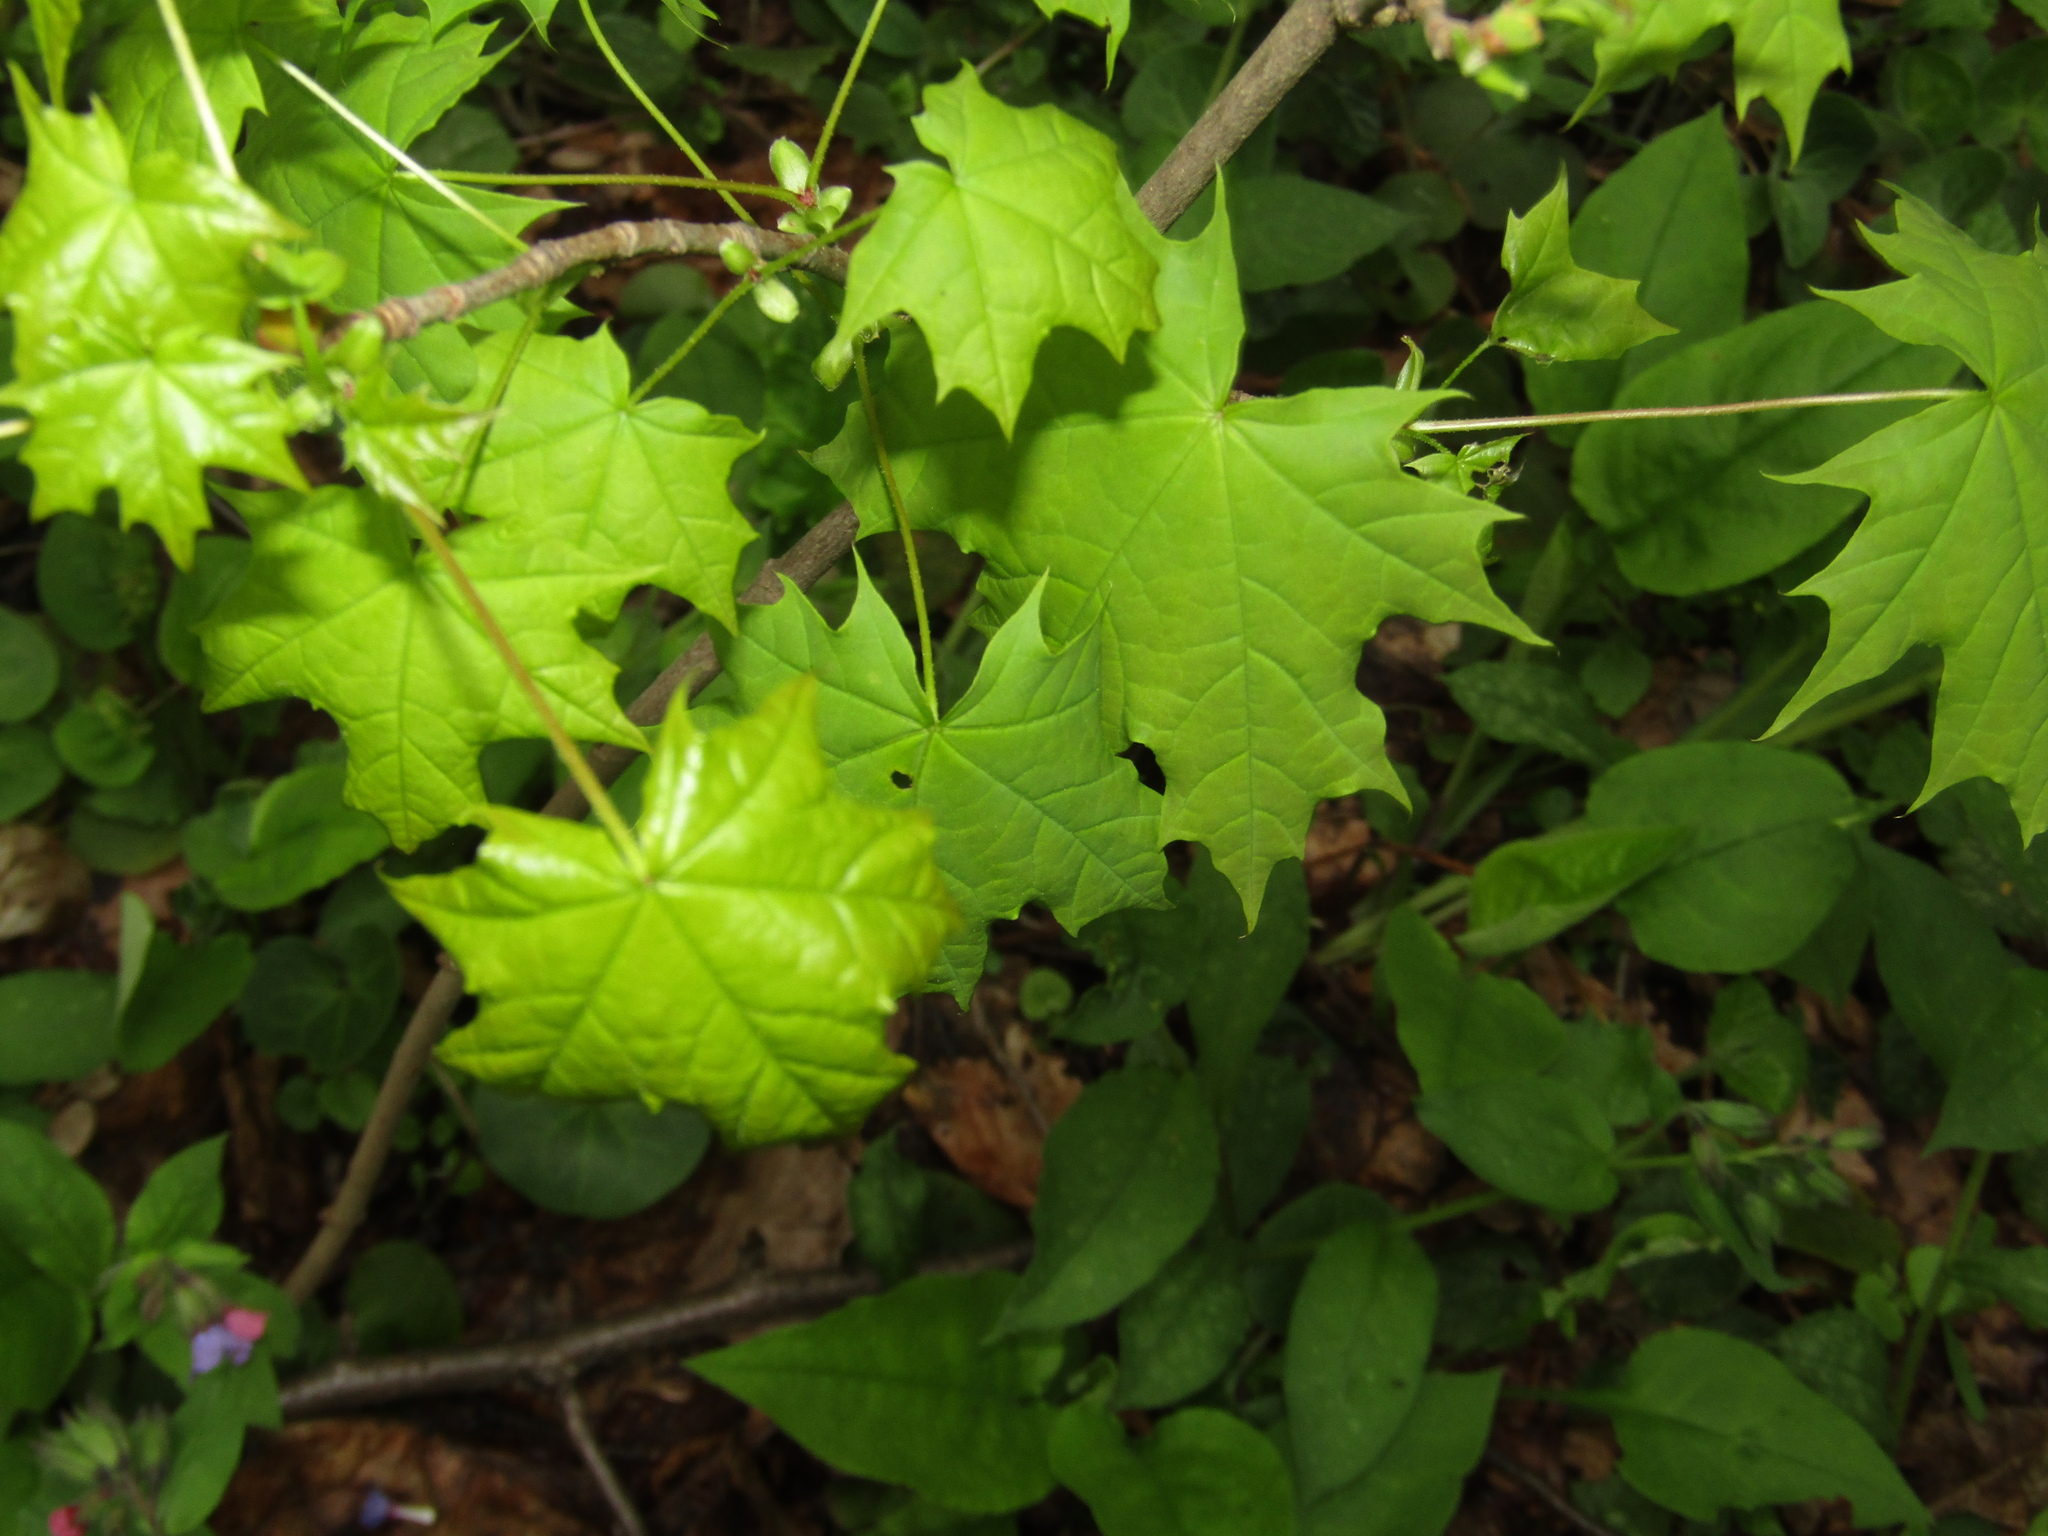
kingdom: Plantae
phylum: Tracheophyta
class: Magnoliopsida
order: Sapindales
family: Sapindaceae
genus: Acer
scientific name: Acer platanoides
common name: Norway maple
